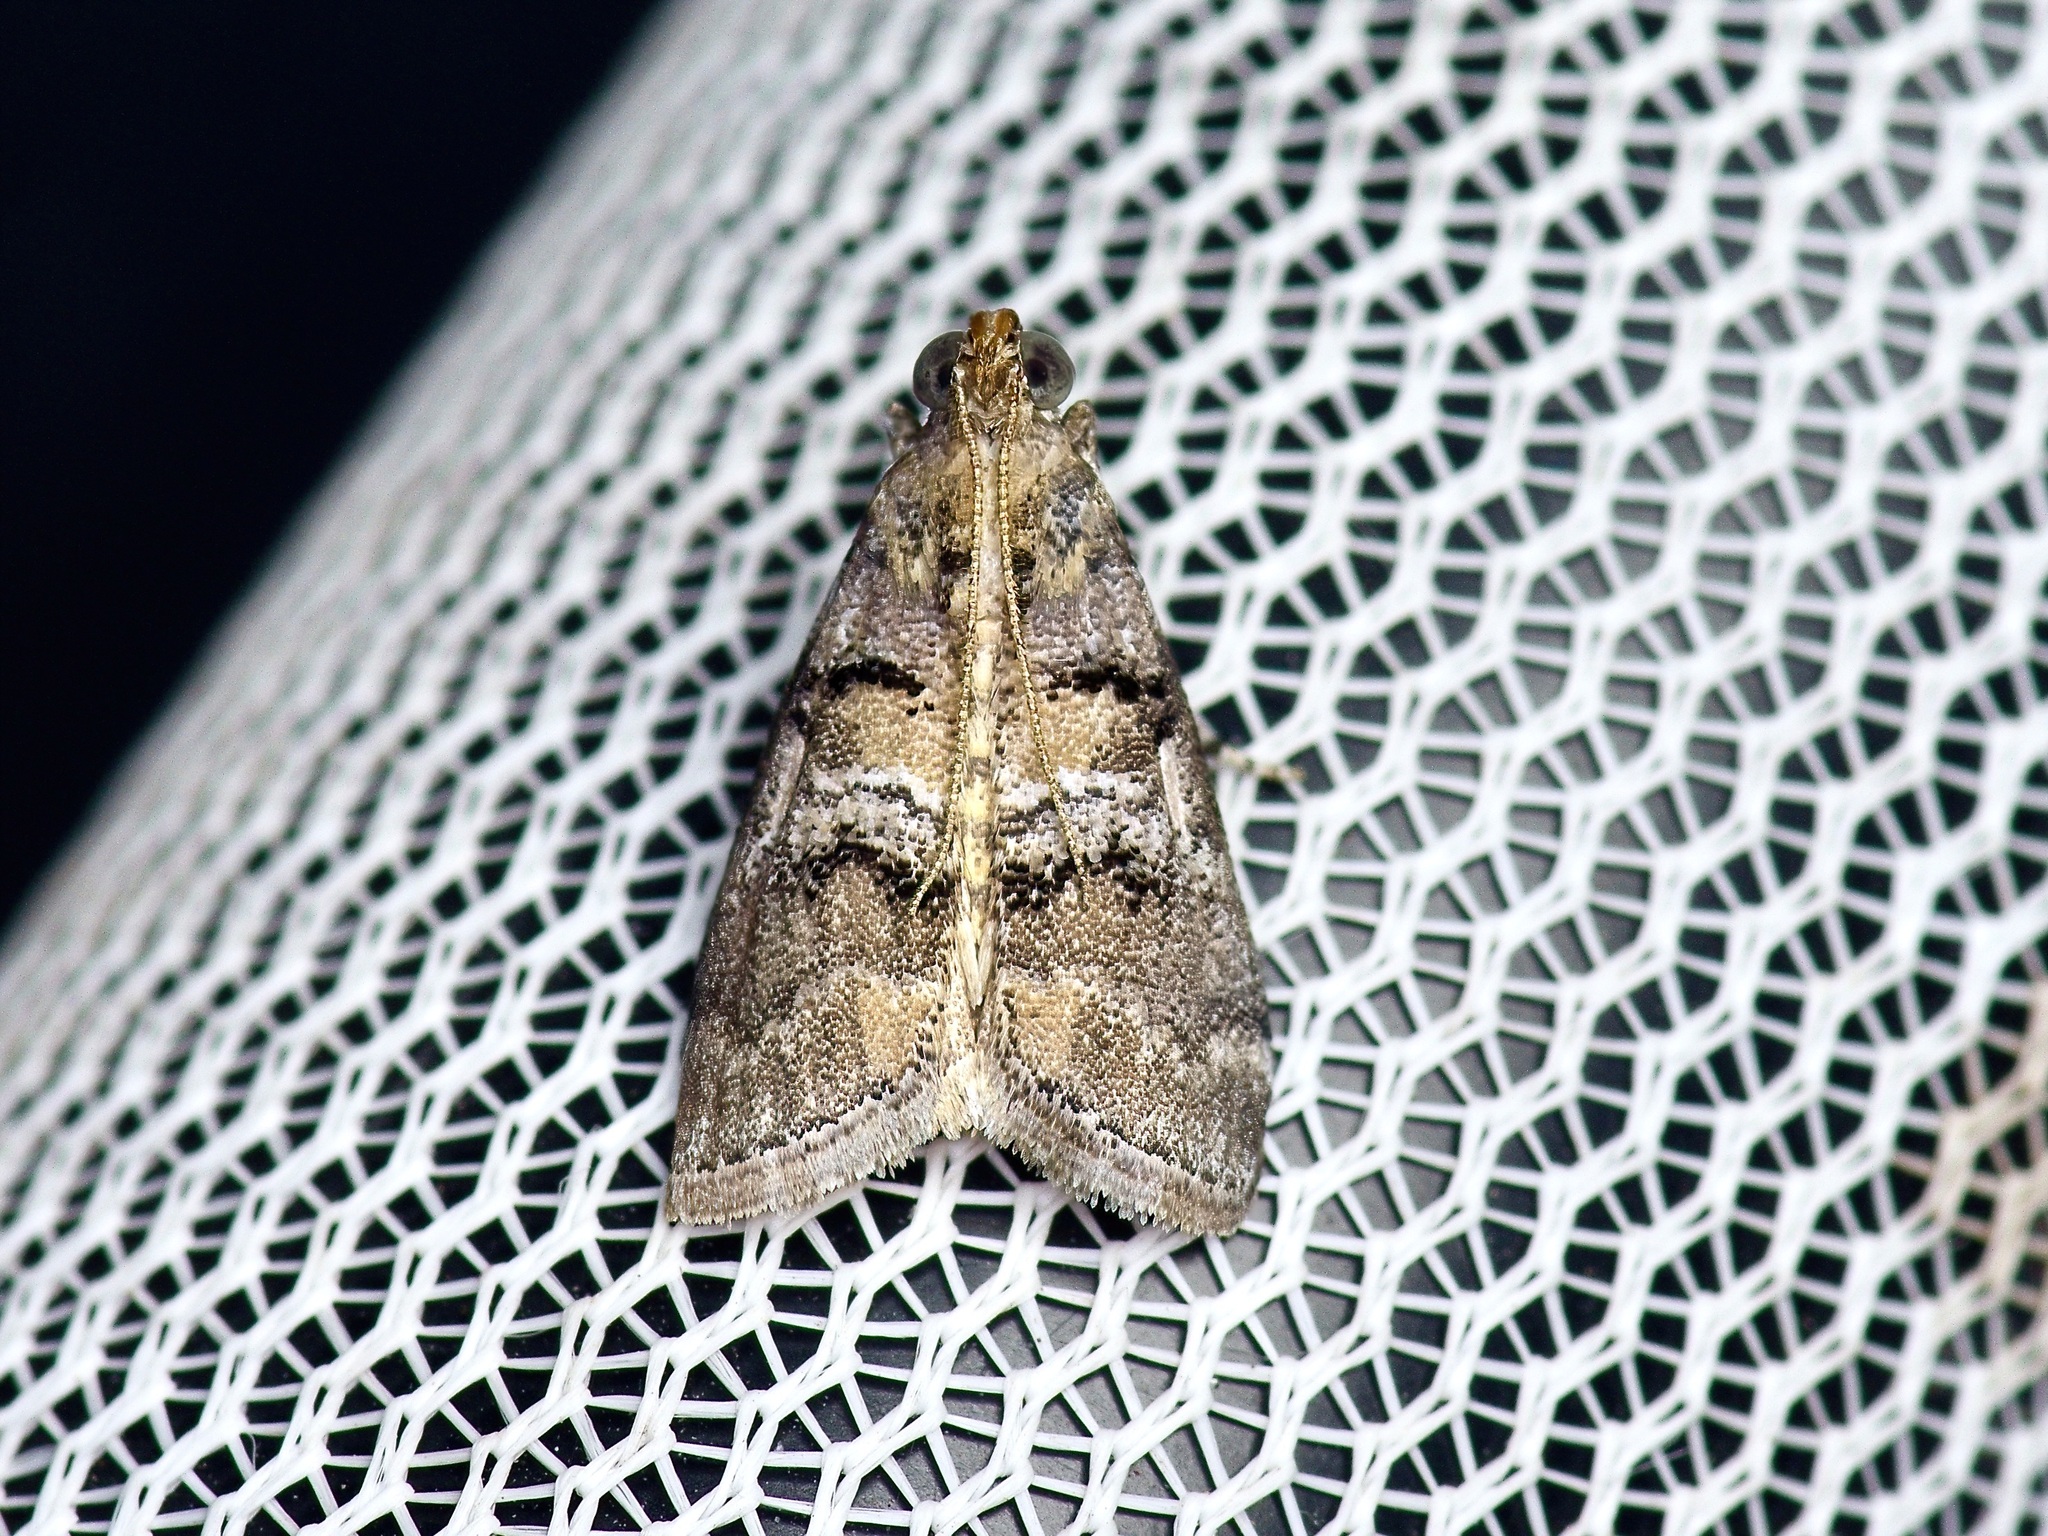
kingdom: Animalia
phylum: Arthropoda
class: Insecta
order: Lepidoptera
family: Pyralidae
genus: Pococera
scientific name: Pococera maritimalis
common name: Gray-banded pococera moth
